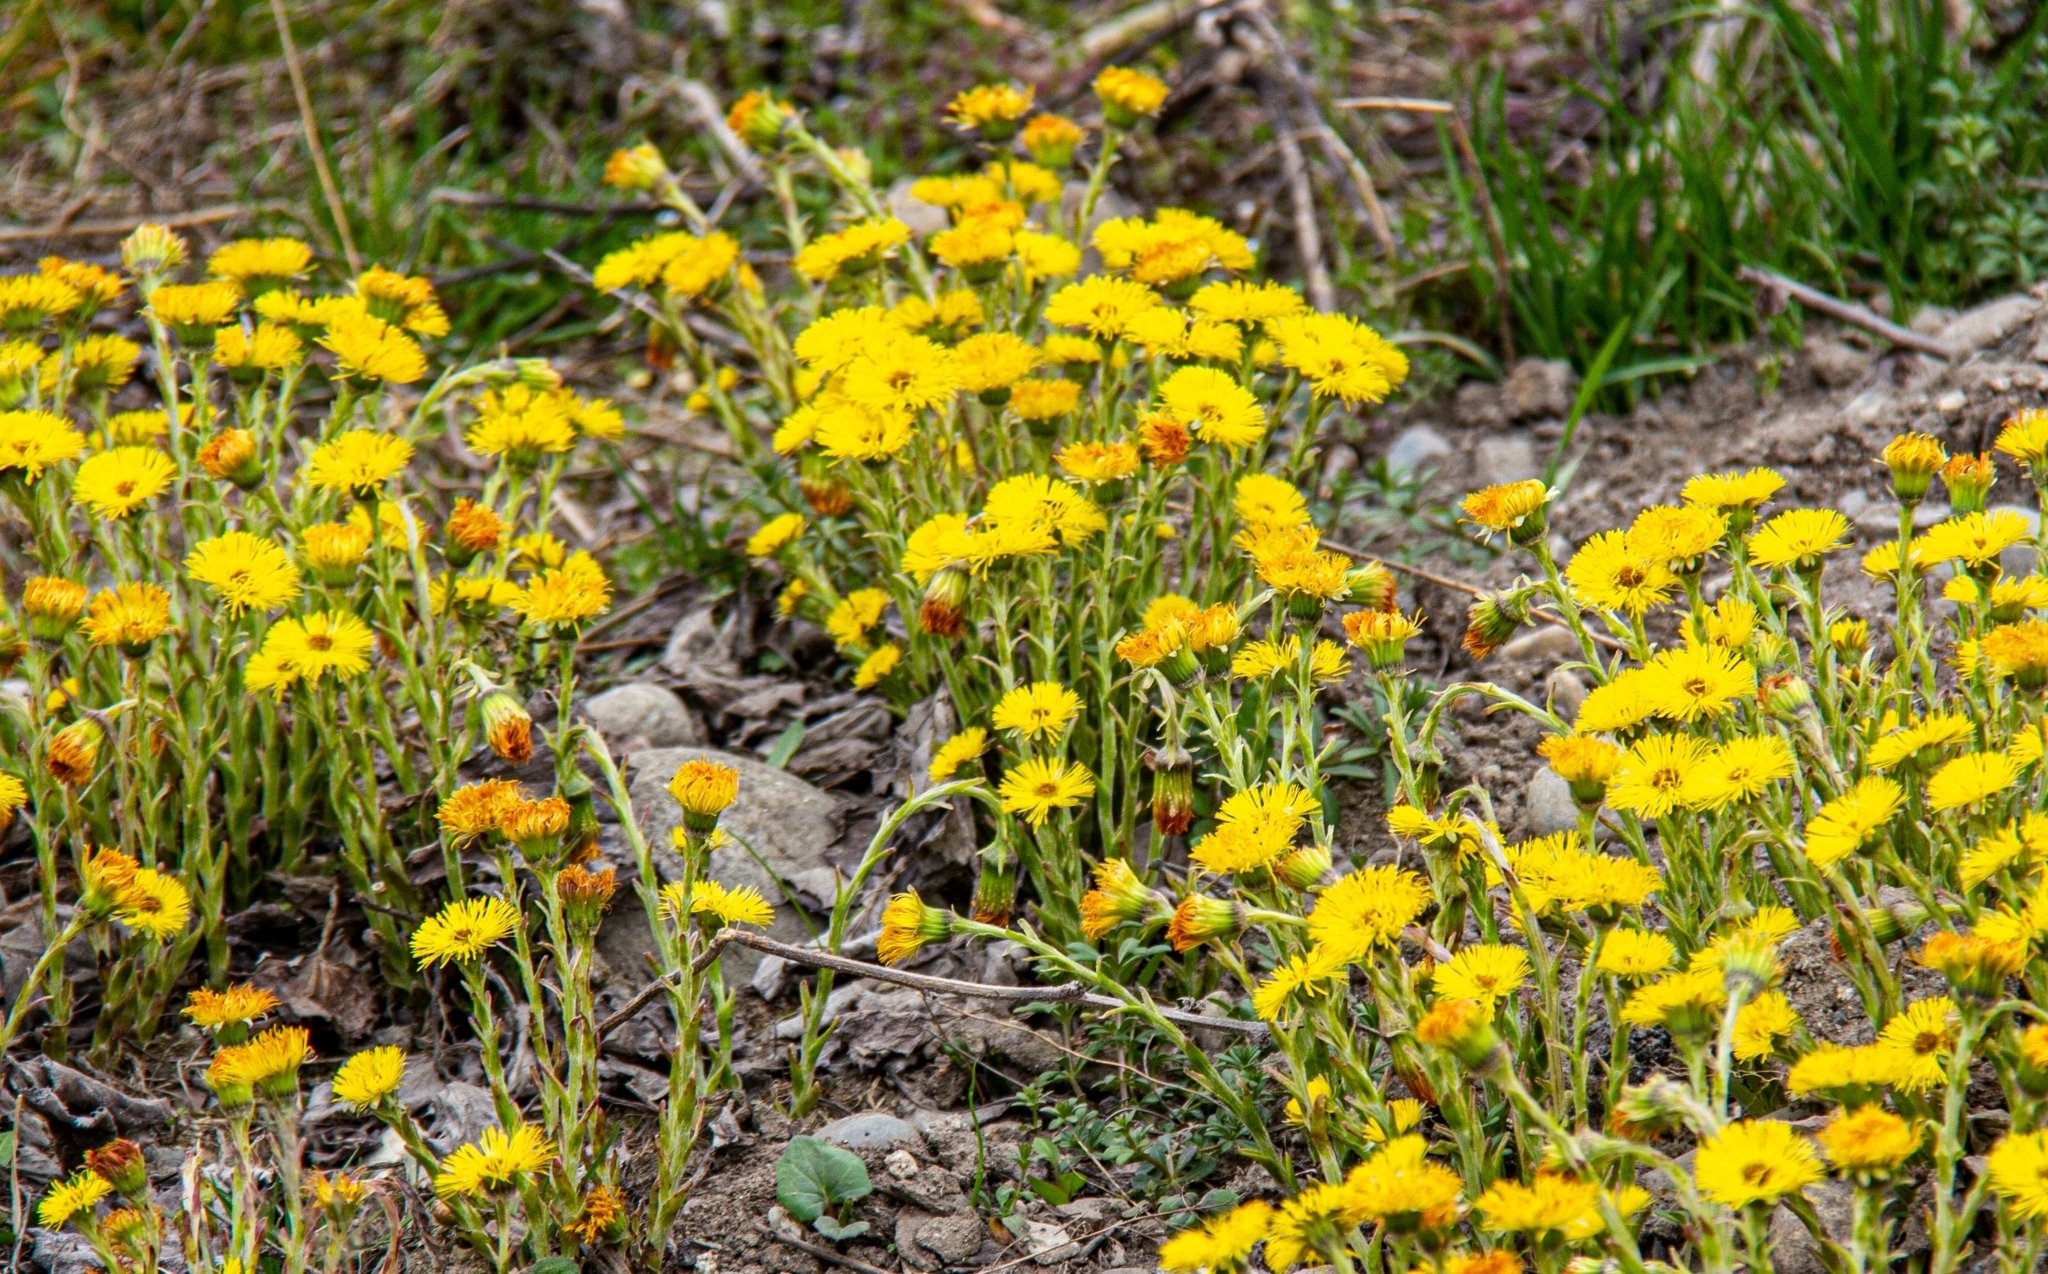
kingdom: Plantae
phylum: Tracheophyta
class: Magnoliopsida
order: Asterales
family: Asteraceae
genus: Tussilago
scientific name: Tussilago farfara
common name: Coltsfoot
